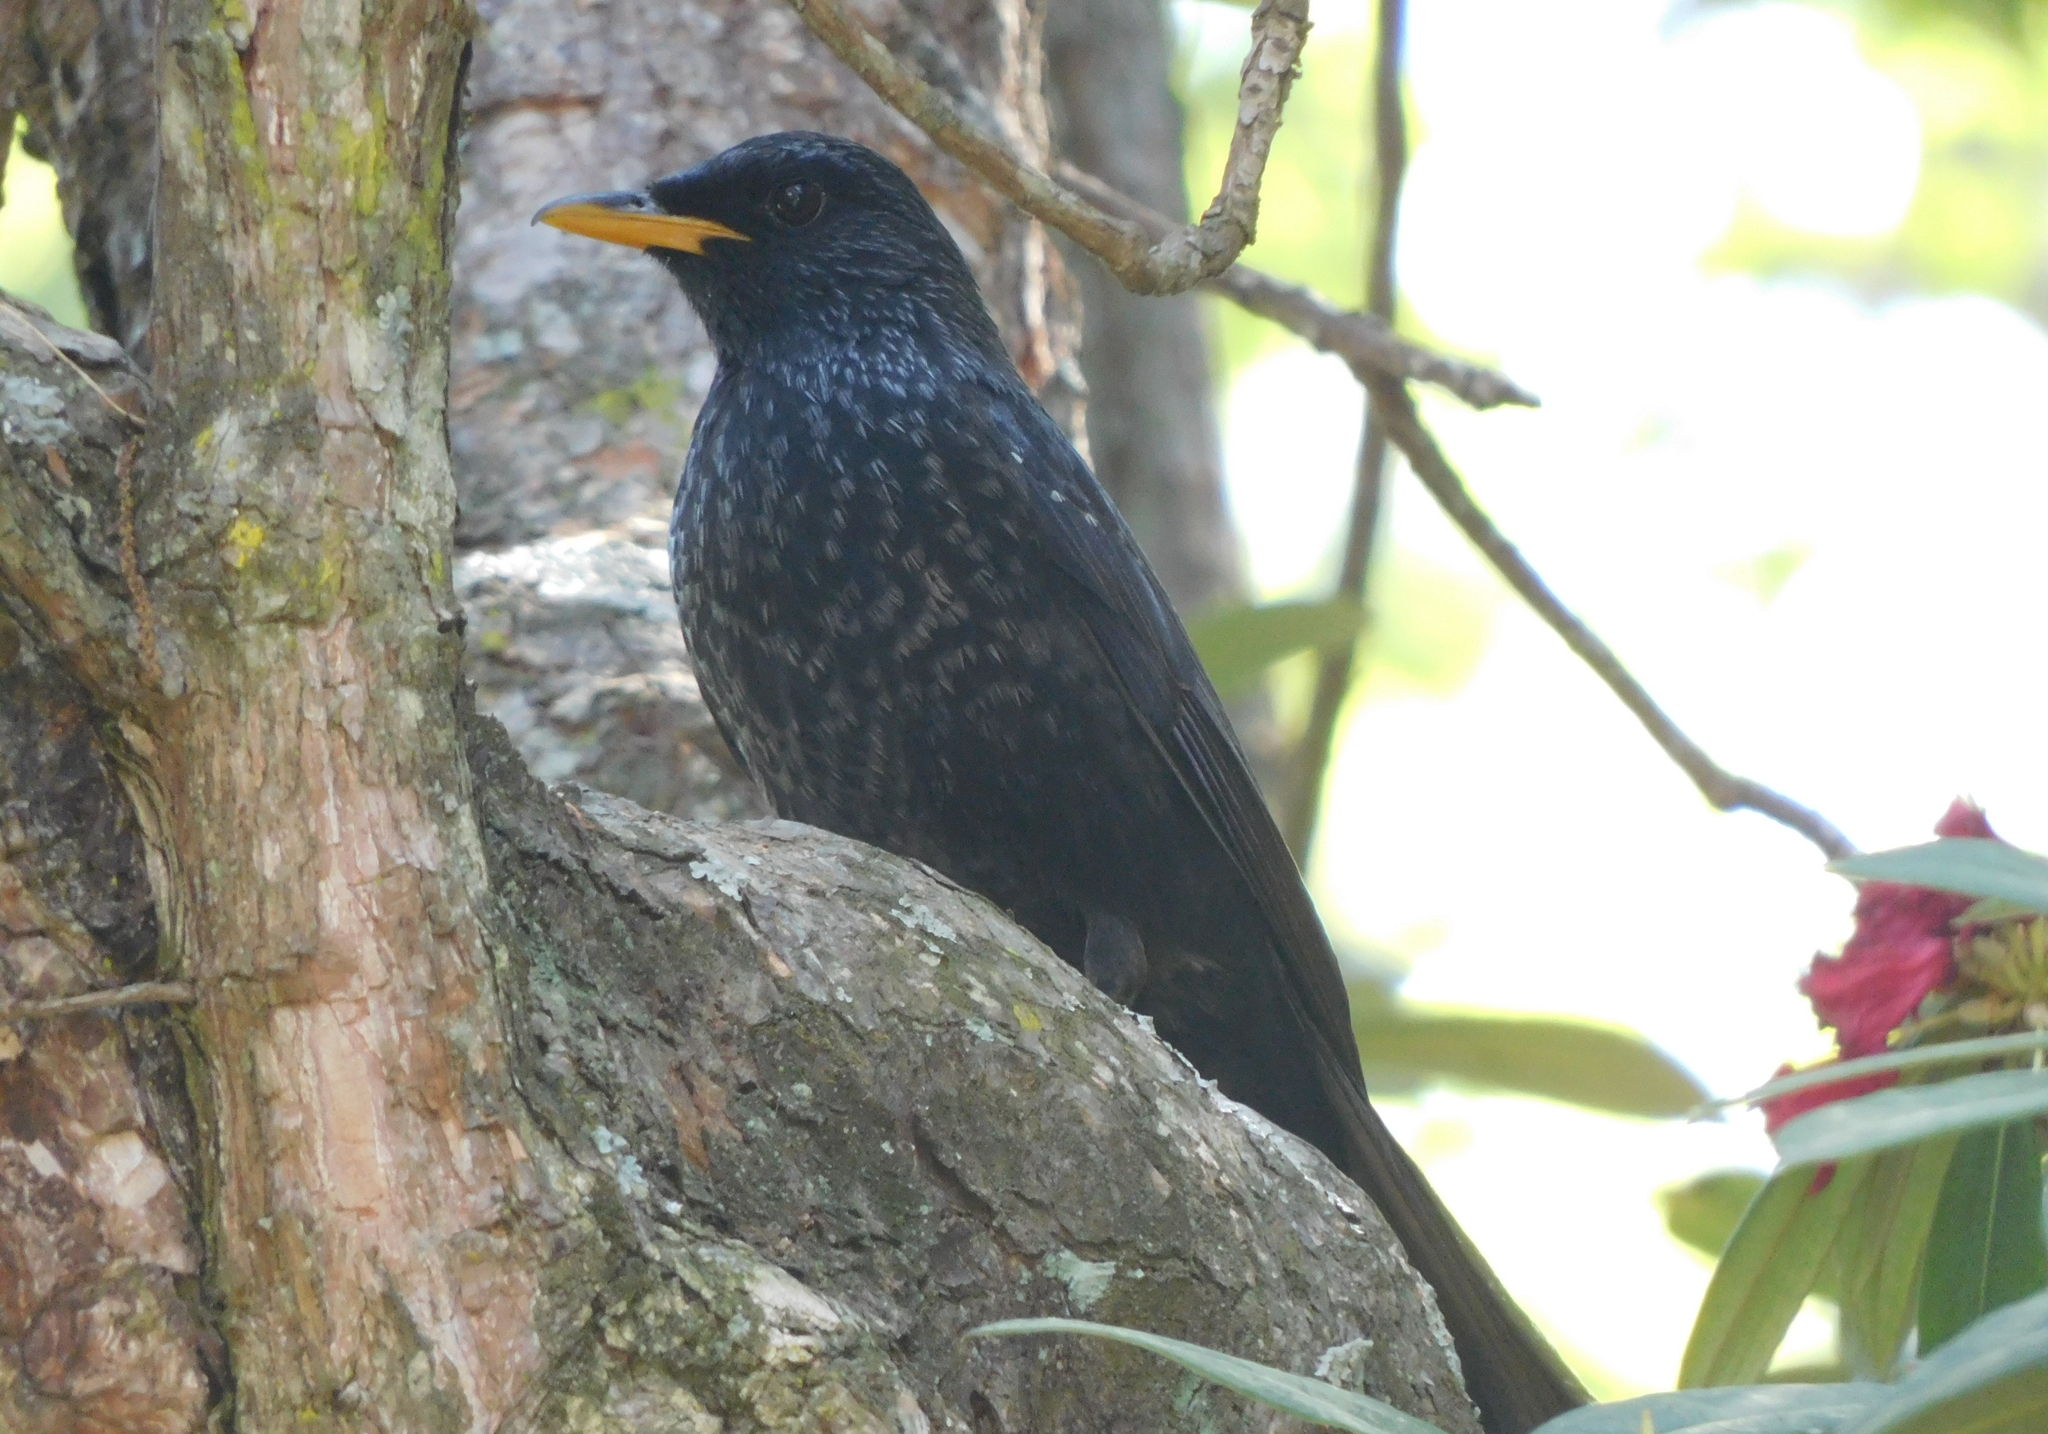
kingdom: Animalia
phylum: Chordata
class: Aves
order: Passeriformes
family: Muscicapidae
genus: Myophonus
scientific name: Myophonus caeruleus
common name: Blue whistling-thrush
